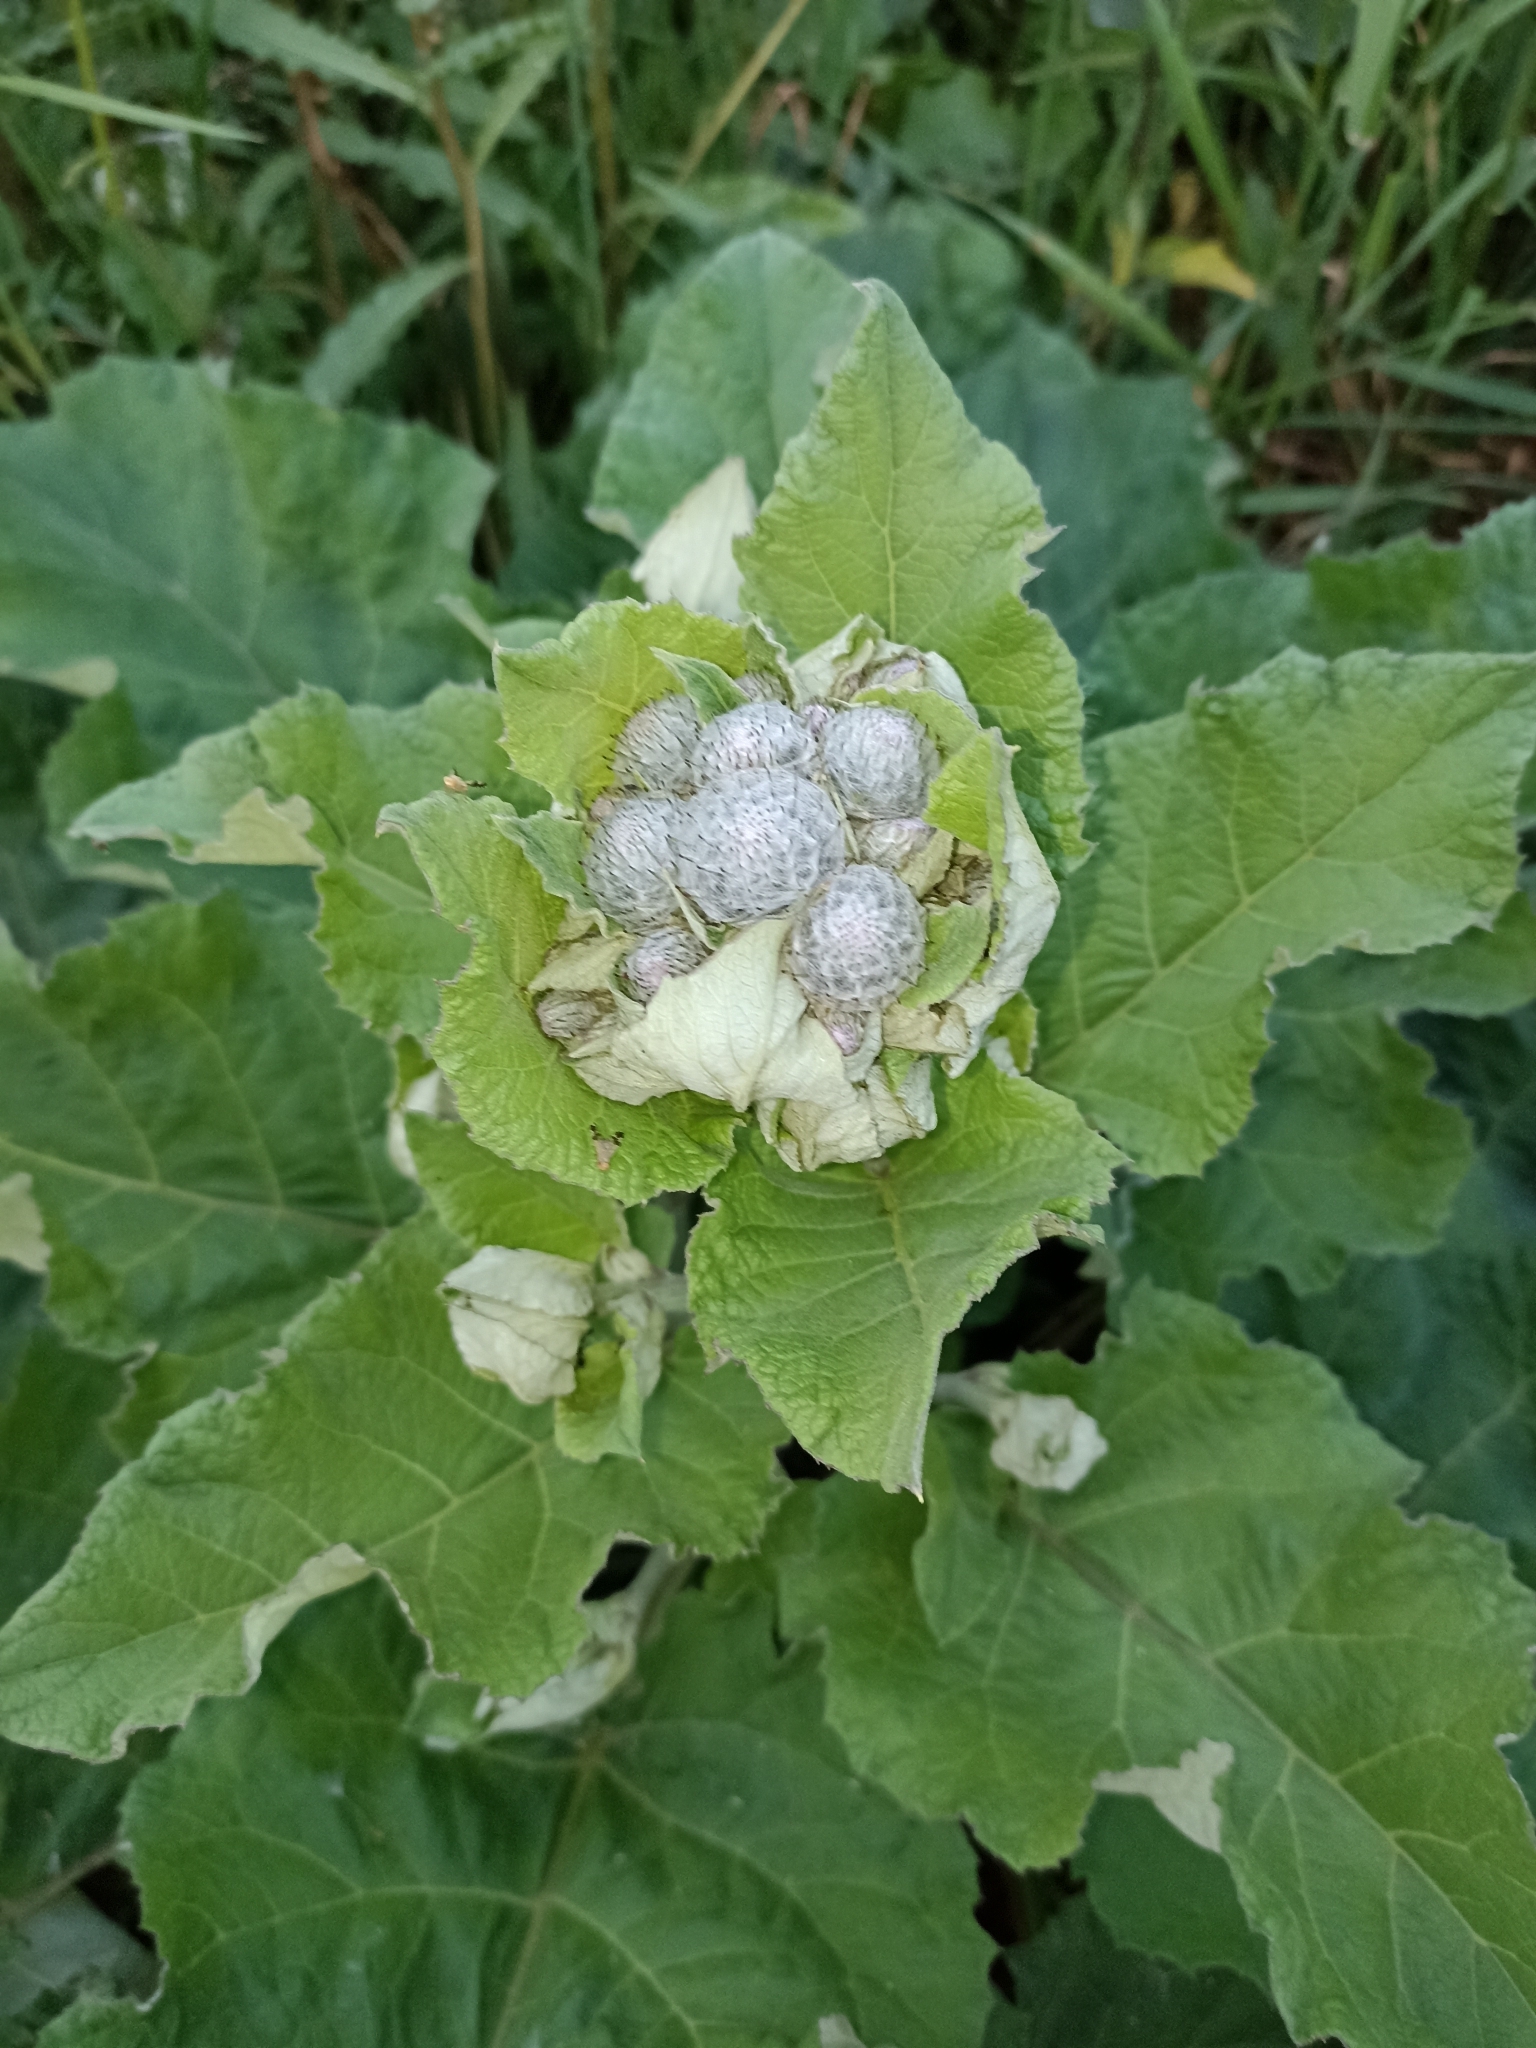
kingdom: Plantae
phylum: Tracheophyta
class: Magnoliopsida
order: Asterales
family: Asteraceae
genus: Arctium
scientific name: Arctium tomentosum
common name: Woolly burdock
